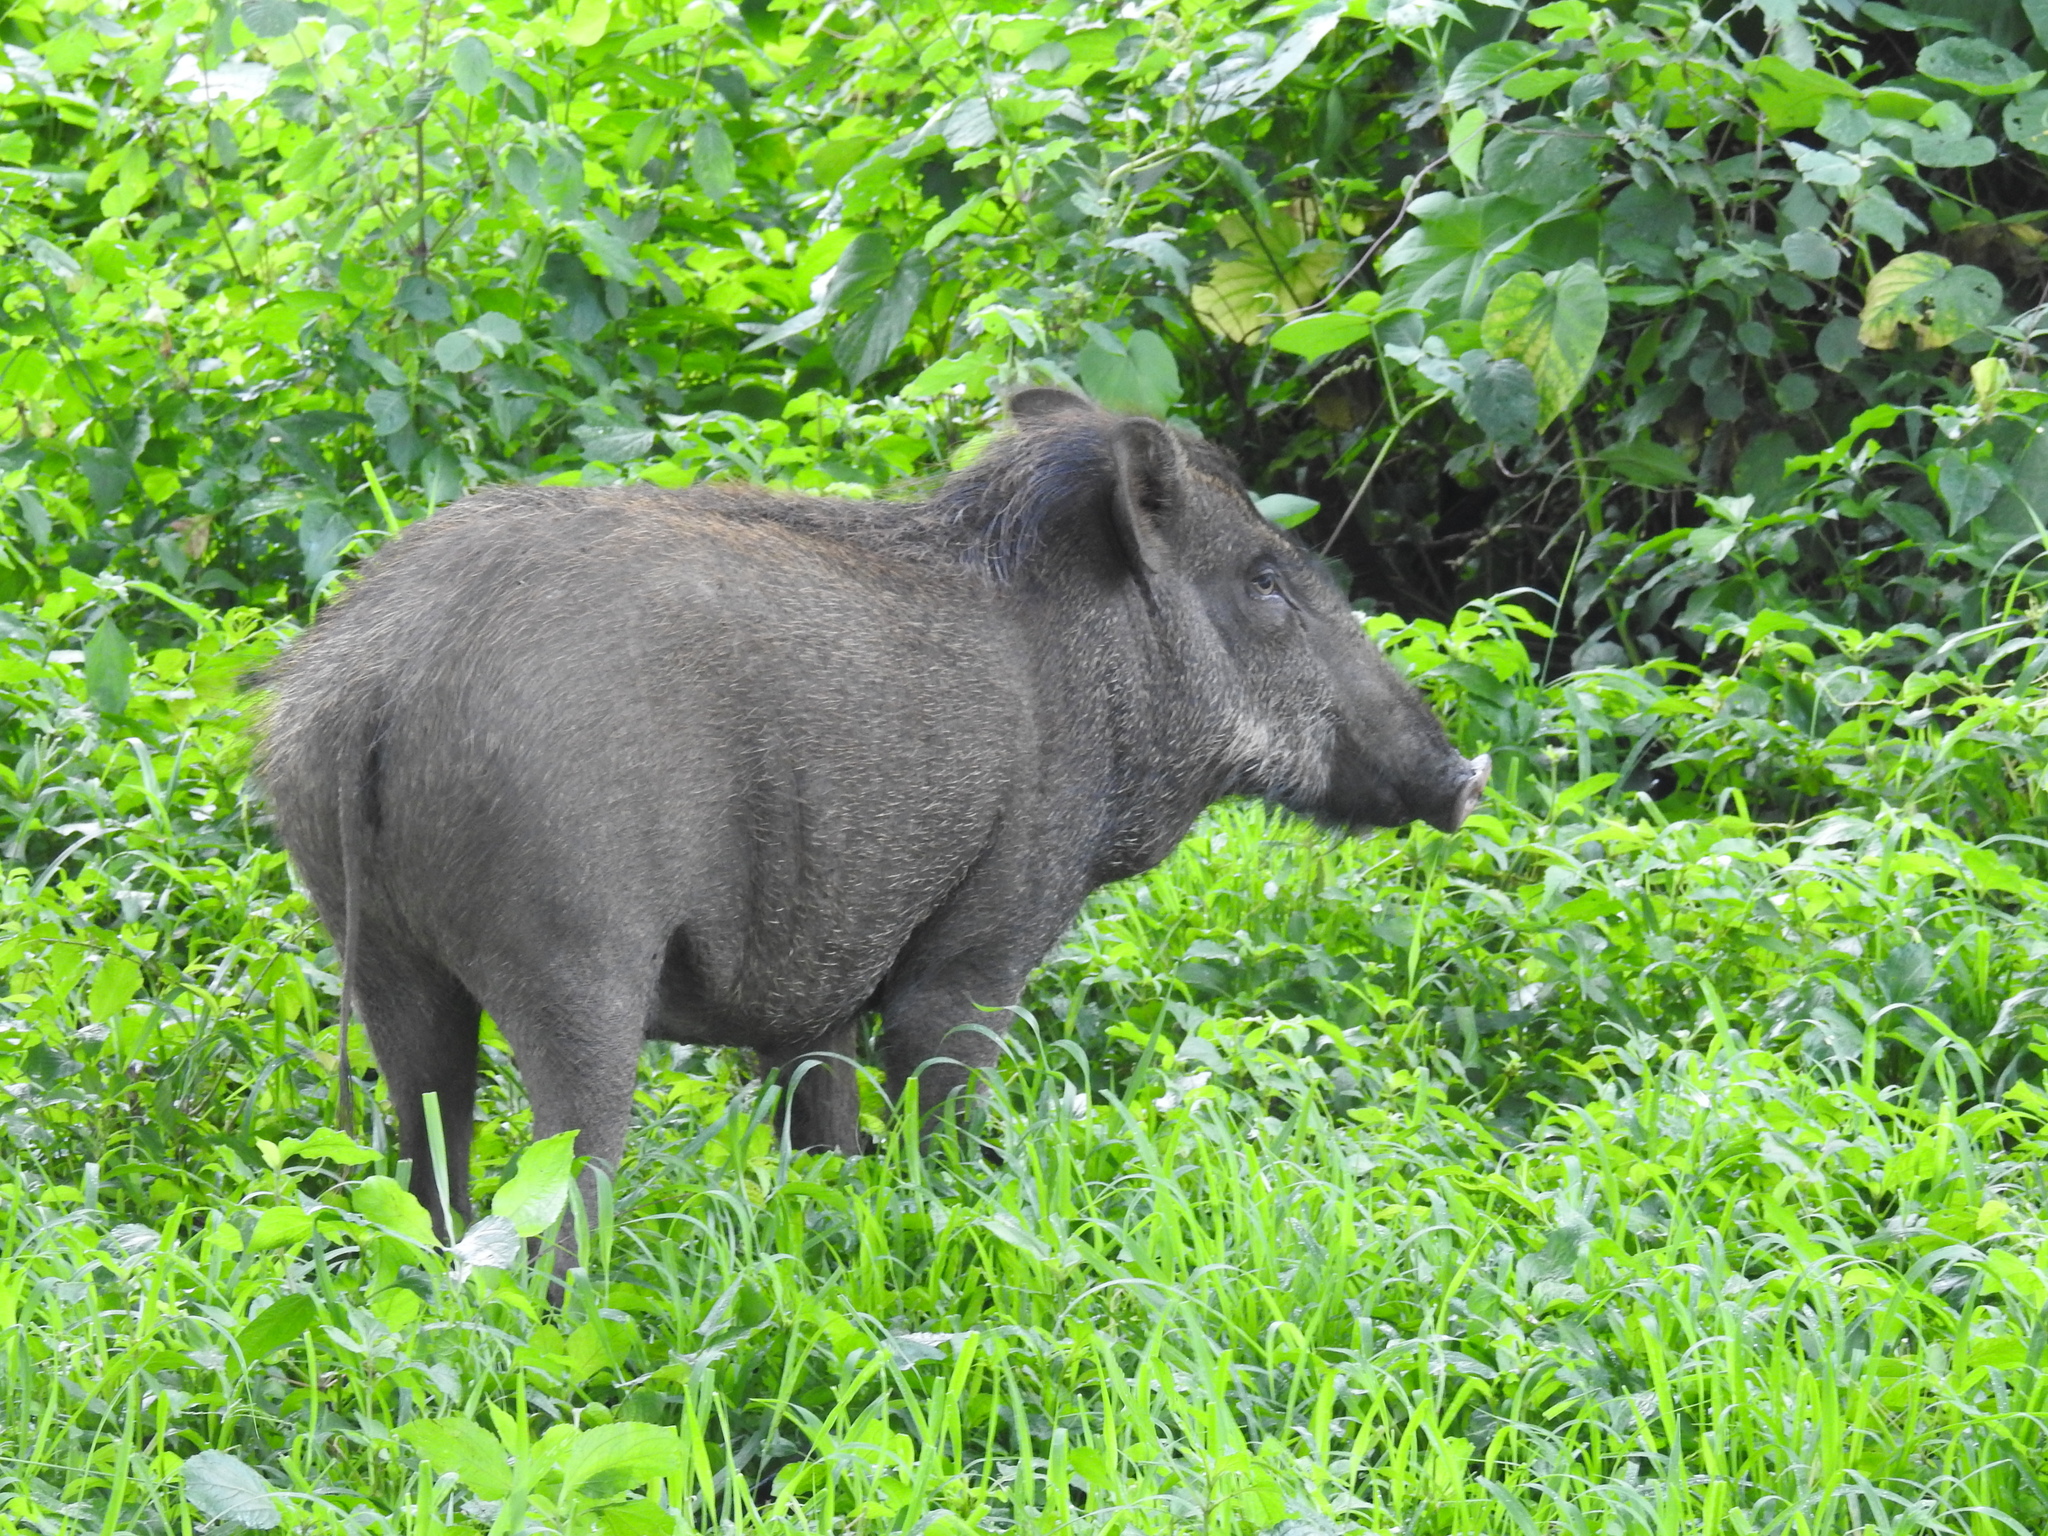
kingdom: Animalia
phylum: Chordata
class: Mammalia
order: Artiodactyla
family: Suidae
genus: Sus
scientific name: Sus scrofa
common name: Wild boar
